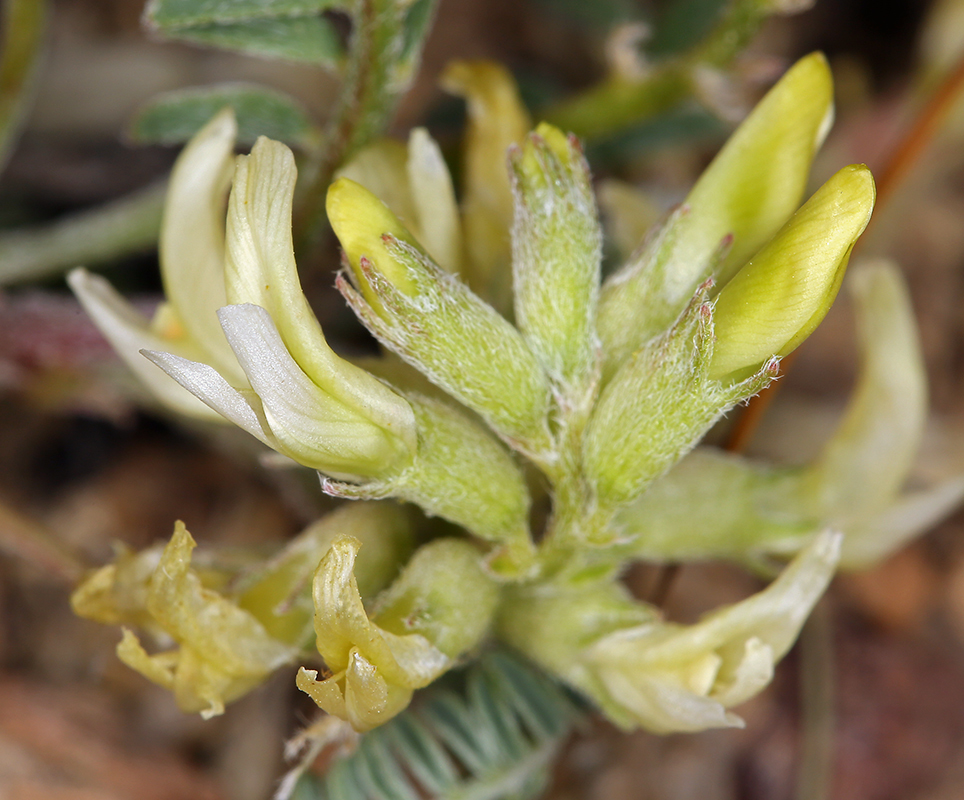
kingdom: Plantae
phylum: Tracheophyta
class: Magnoliopsida
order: Fabales
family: Fabaceae
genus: Astragalus
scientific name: Astragalus lentiginosus
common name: Freckled milkvetch
